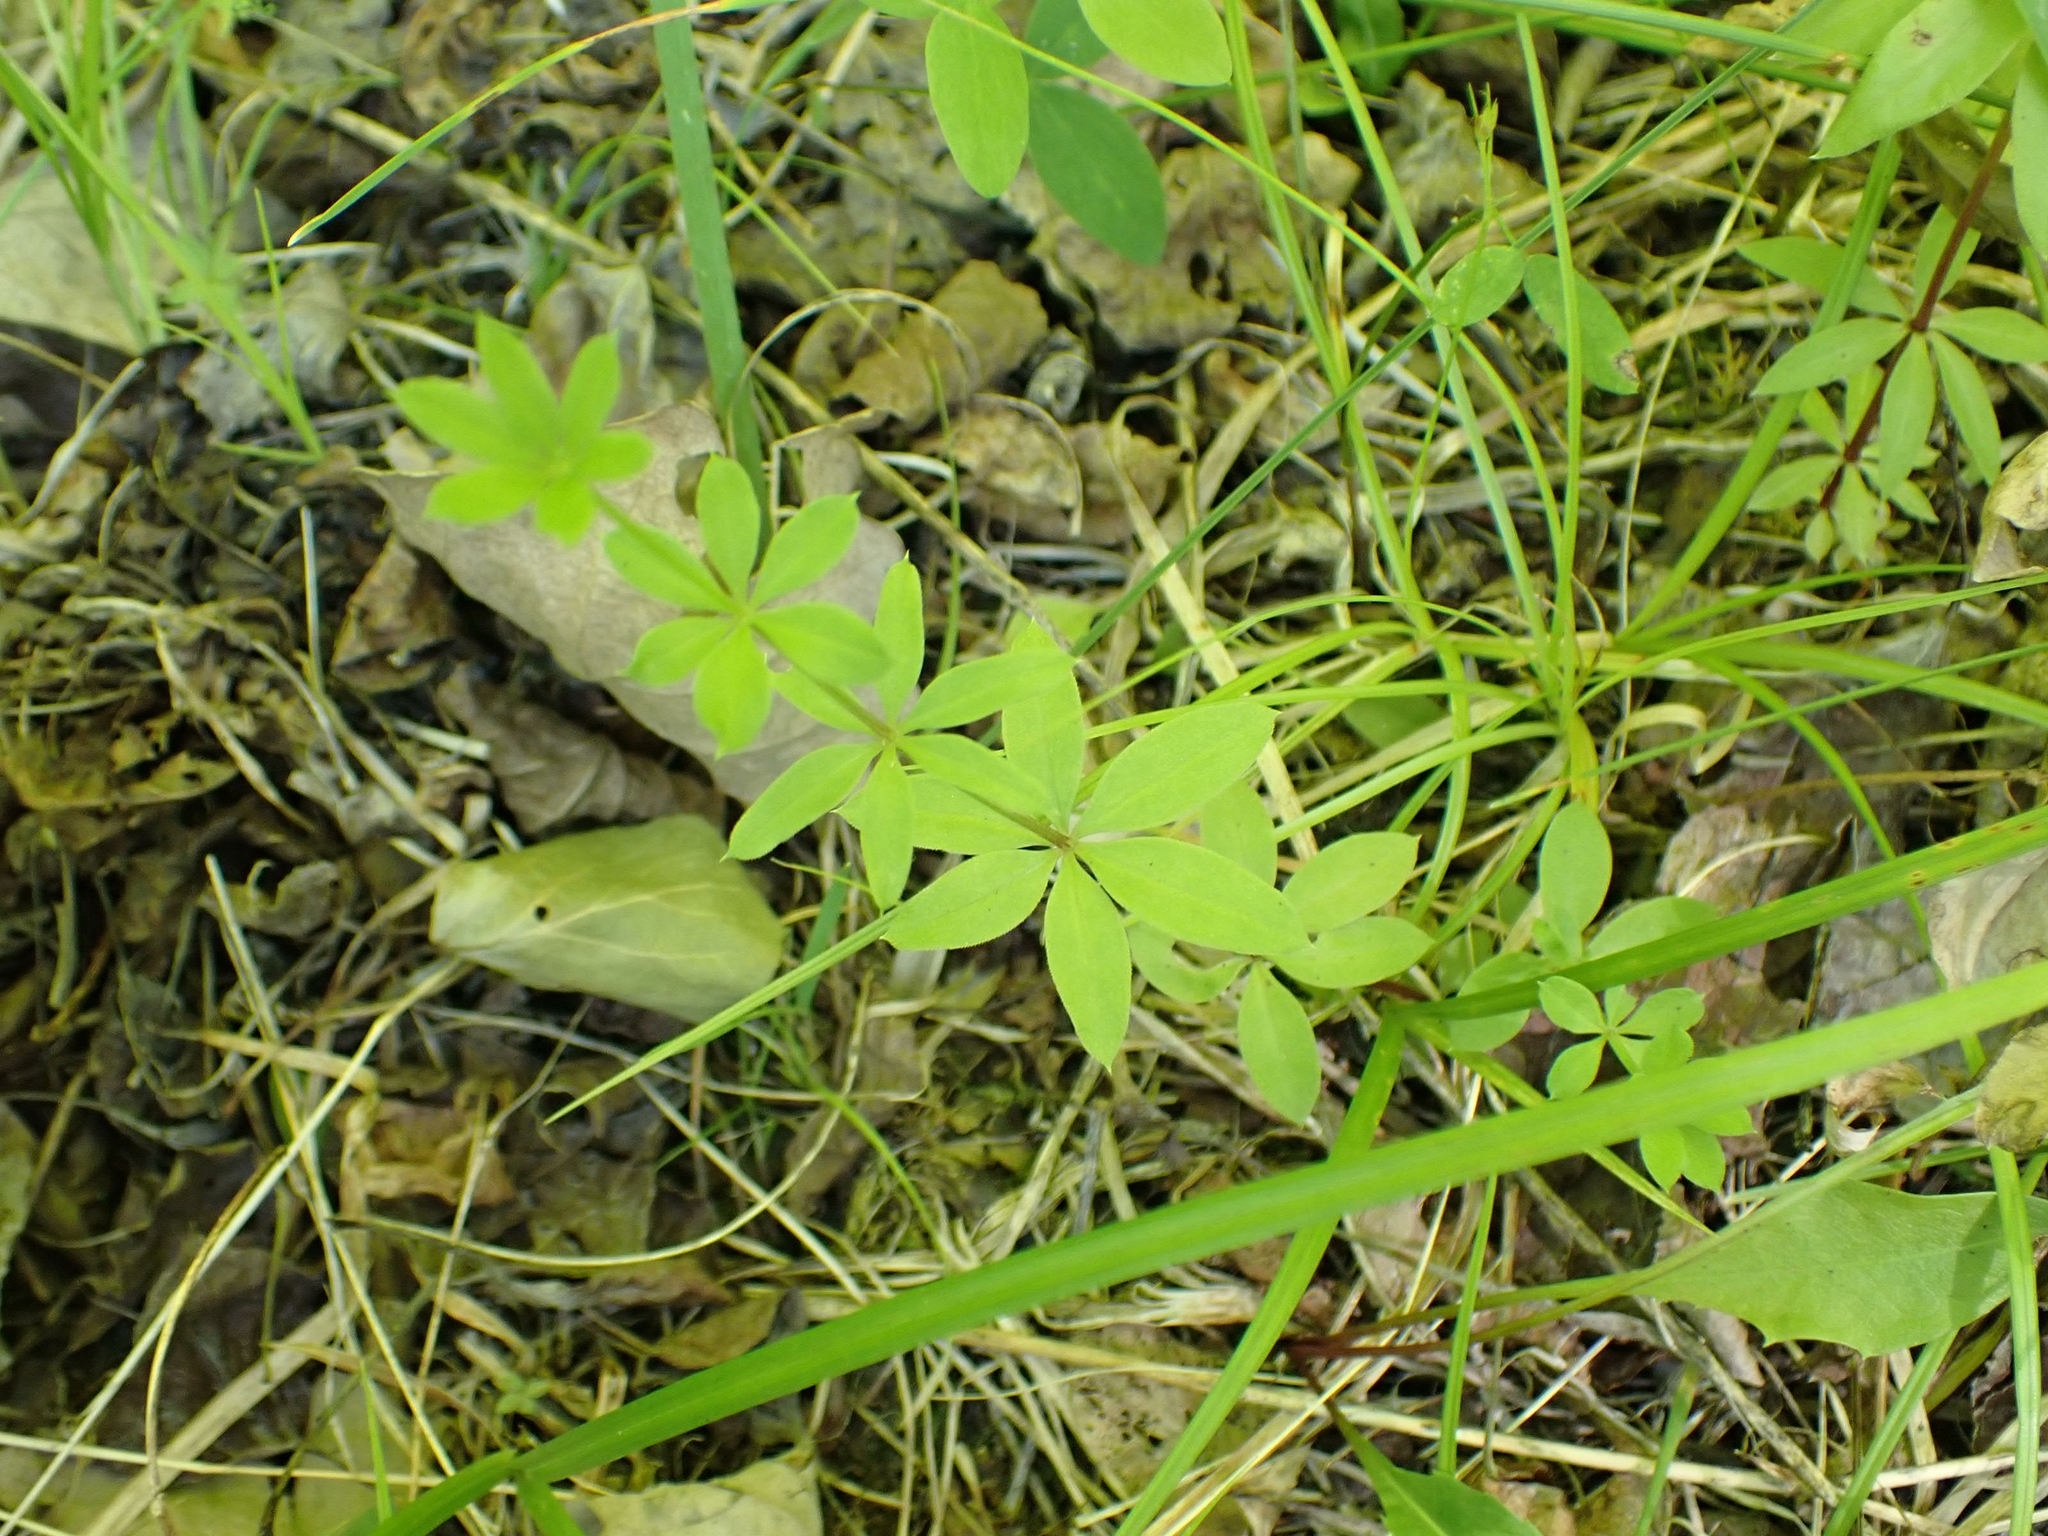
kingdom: Plantae
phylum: Tracheophyta
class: Magnoliopsida
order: Gentianales
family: Rubiaceae
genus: Galium
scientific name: Galium triflorum
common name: Fragrant bedstraw
